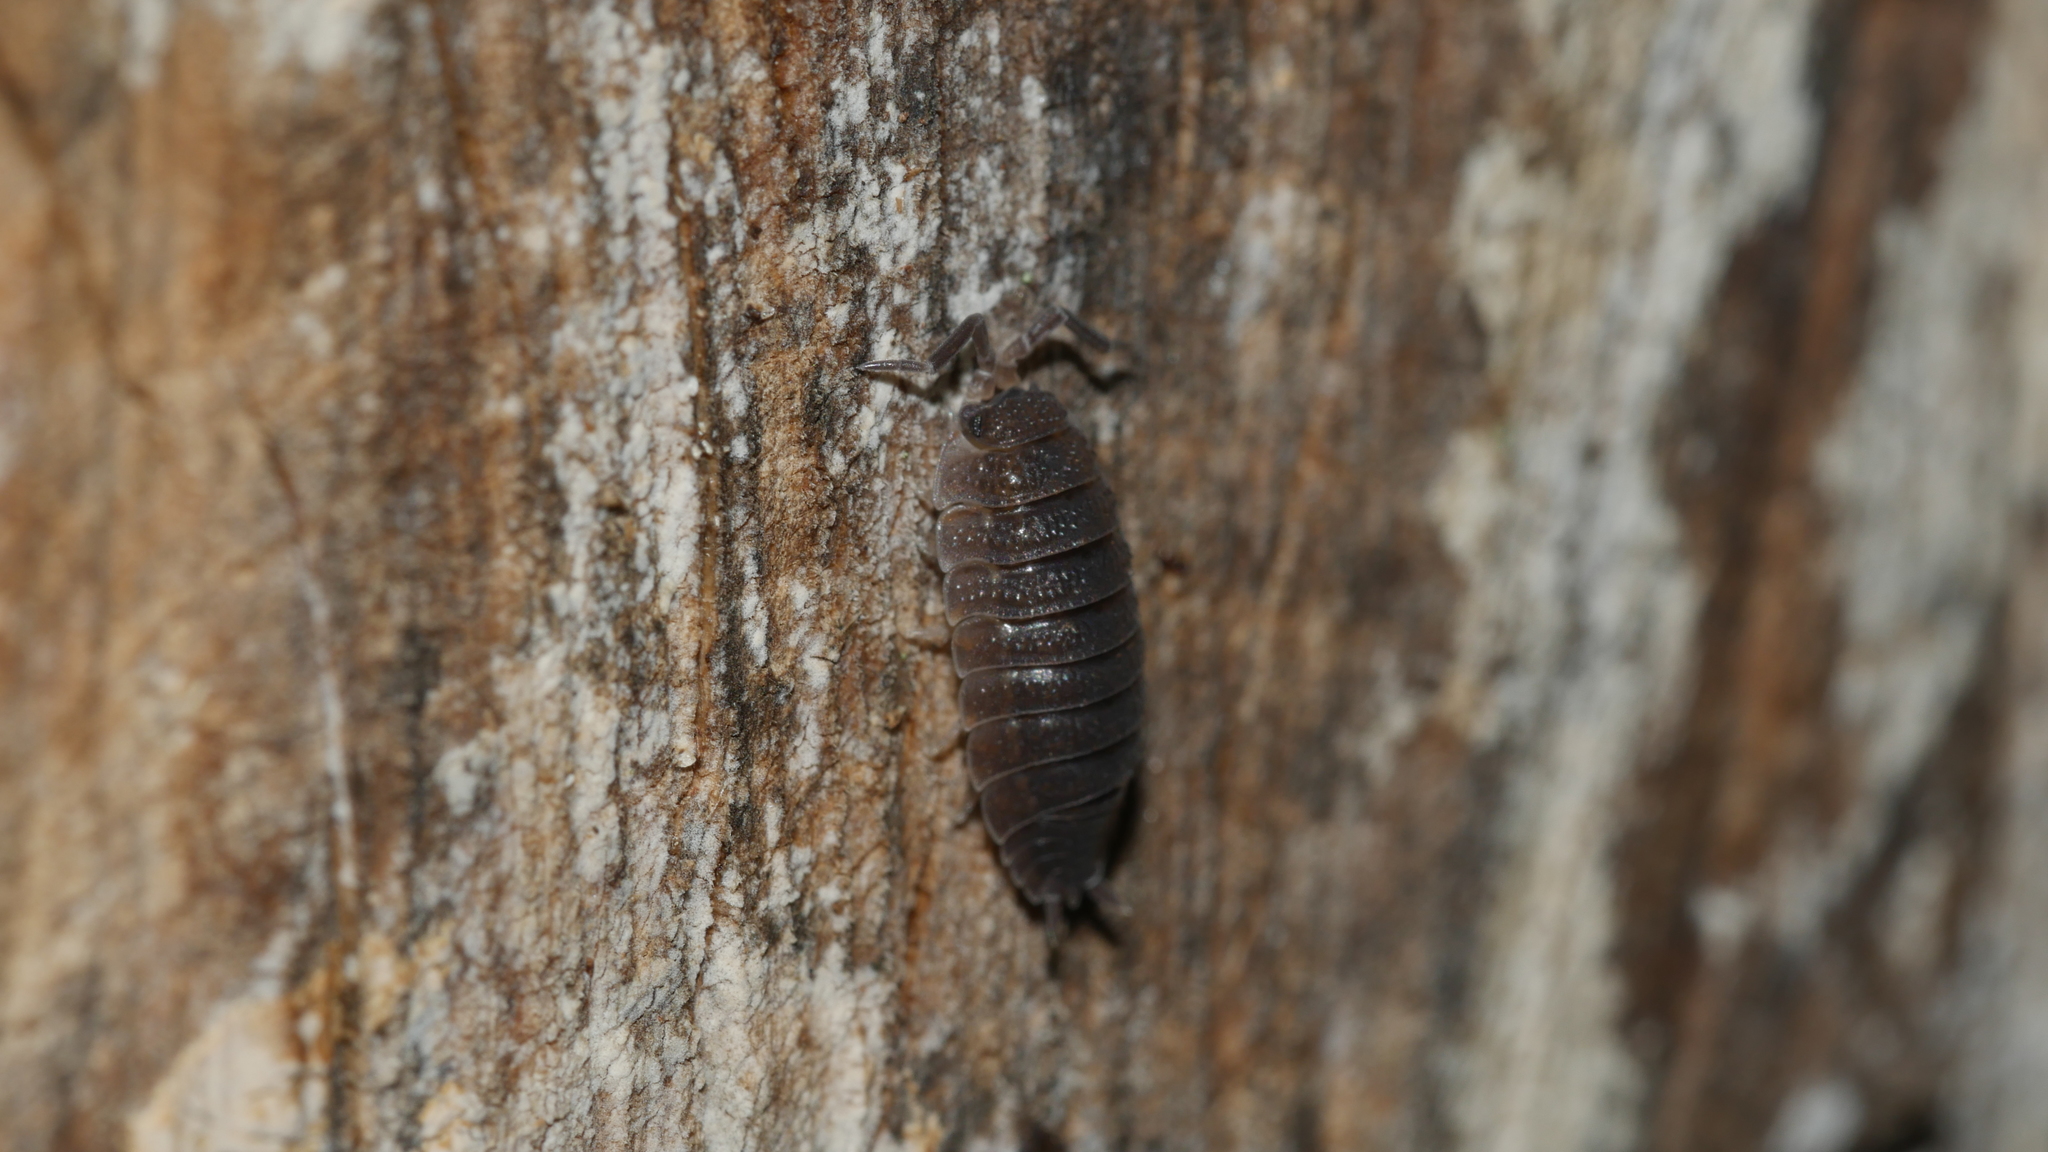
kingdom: Animalia
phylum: Arthropoda
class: Malacostraca
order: Isopoda
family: Porcellionidae
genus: Porcellio
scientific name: Porcellio scaber
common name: Common rough woodlouse
